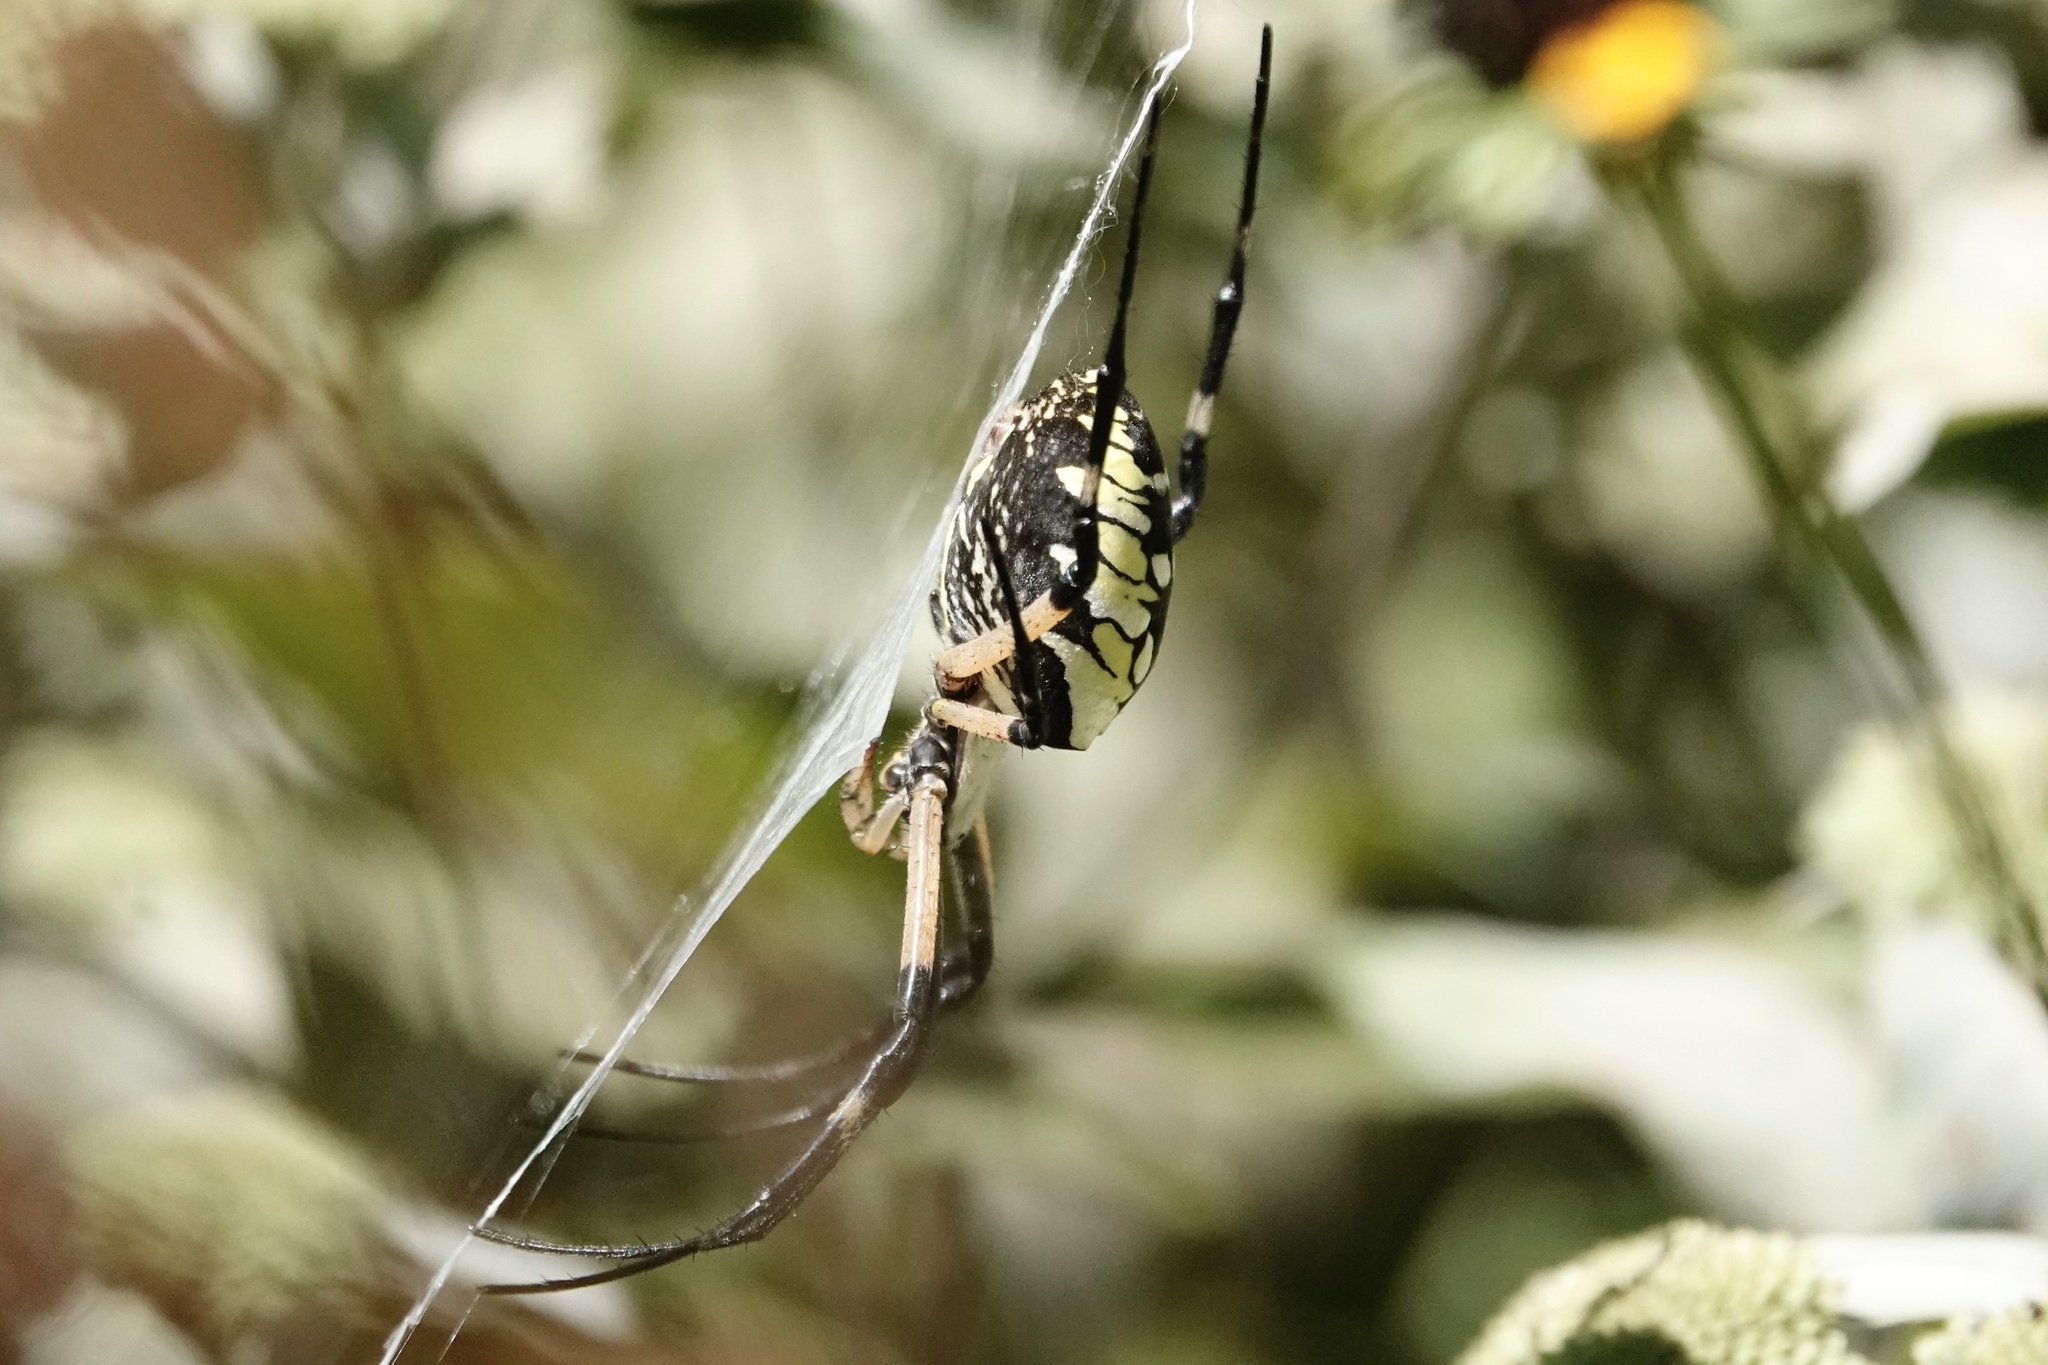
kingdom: Animalia
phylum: Arthropoda
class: Arachnida
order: Araneae
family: Araneidae
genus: Argiope
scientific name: Argiope aurantia
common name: Orb weavers
